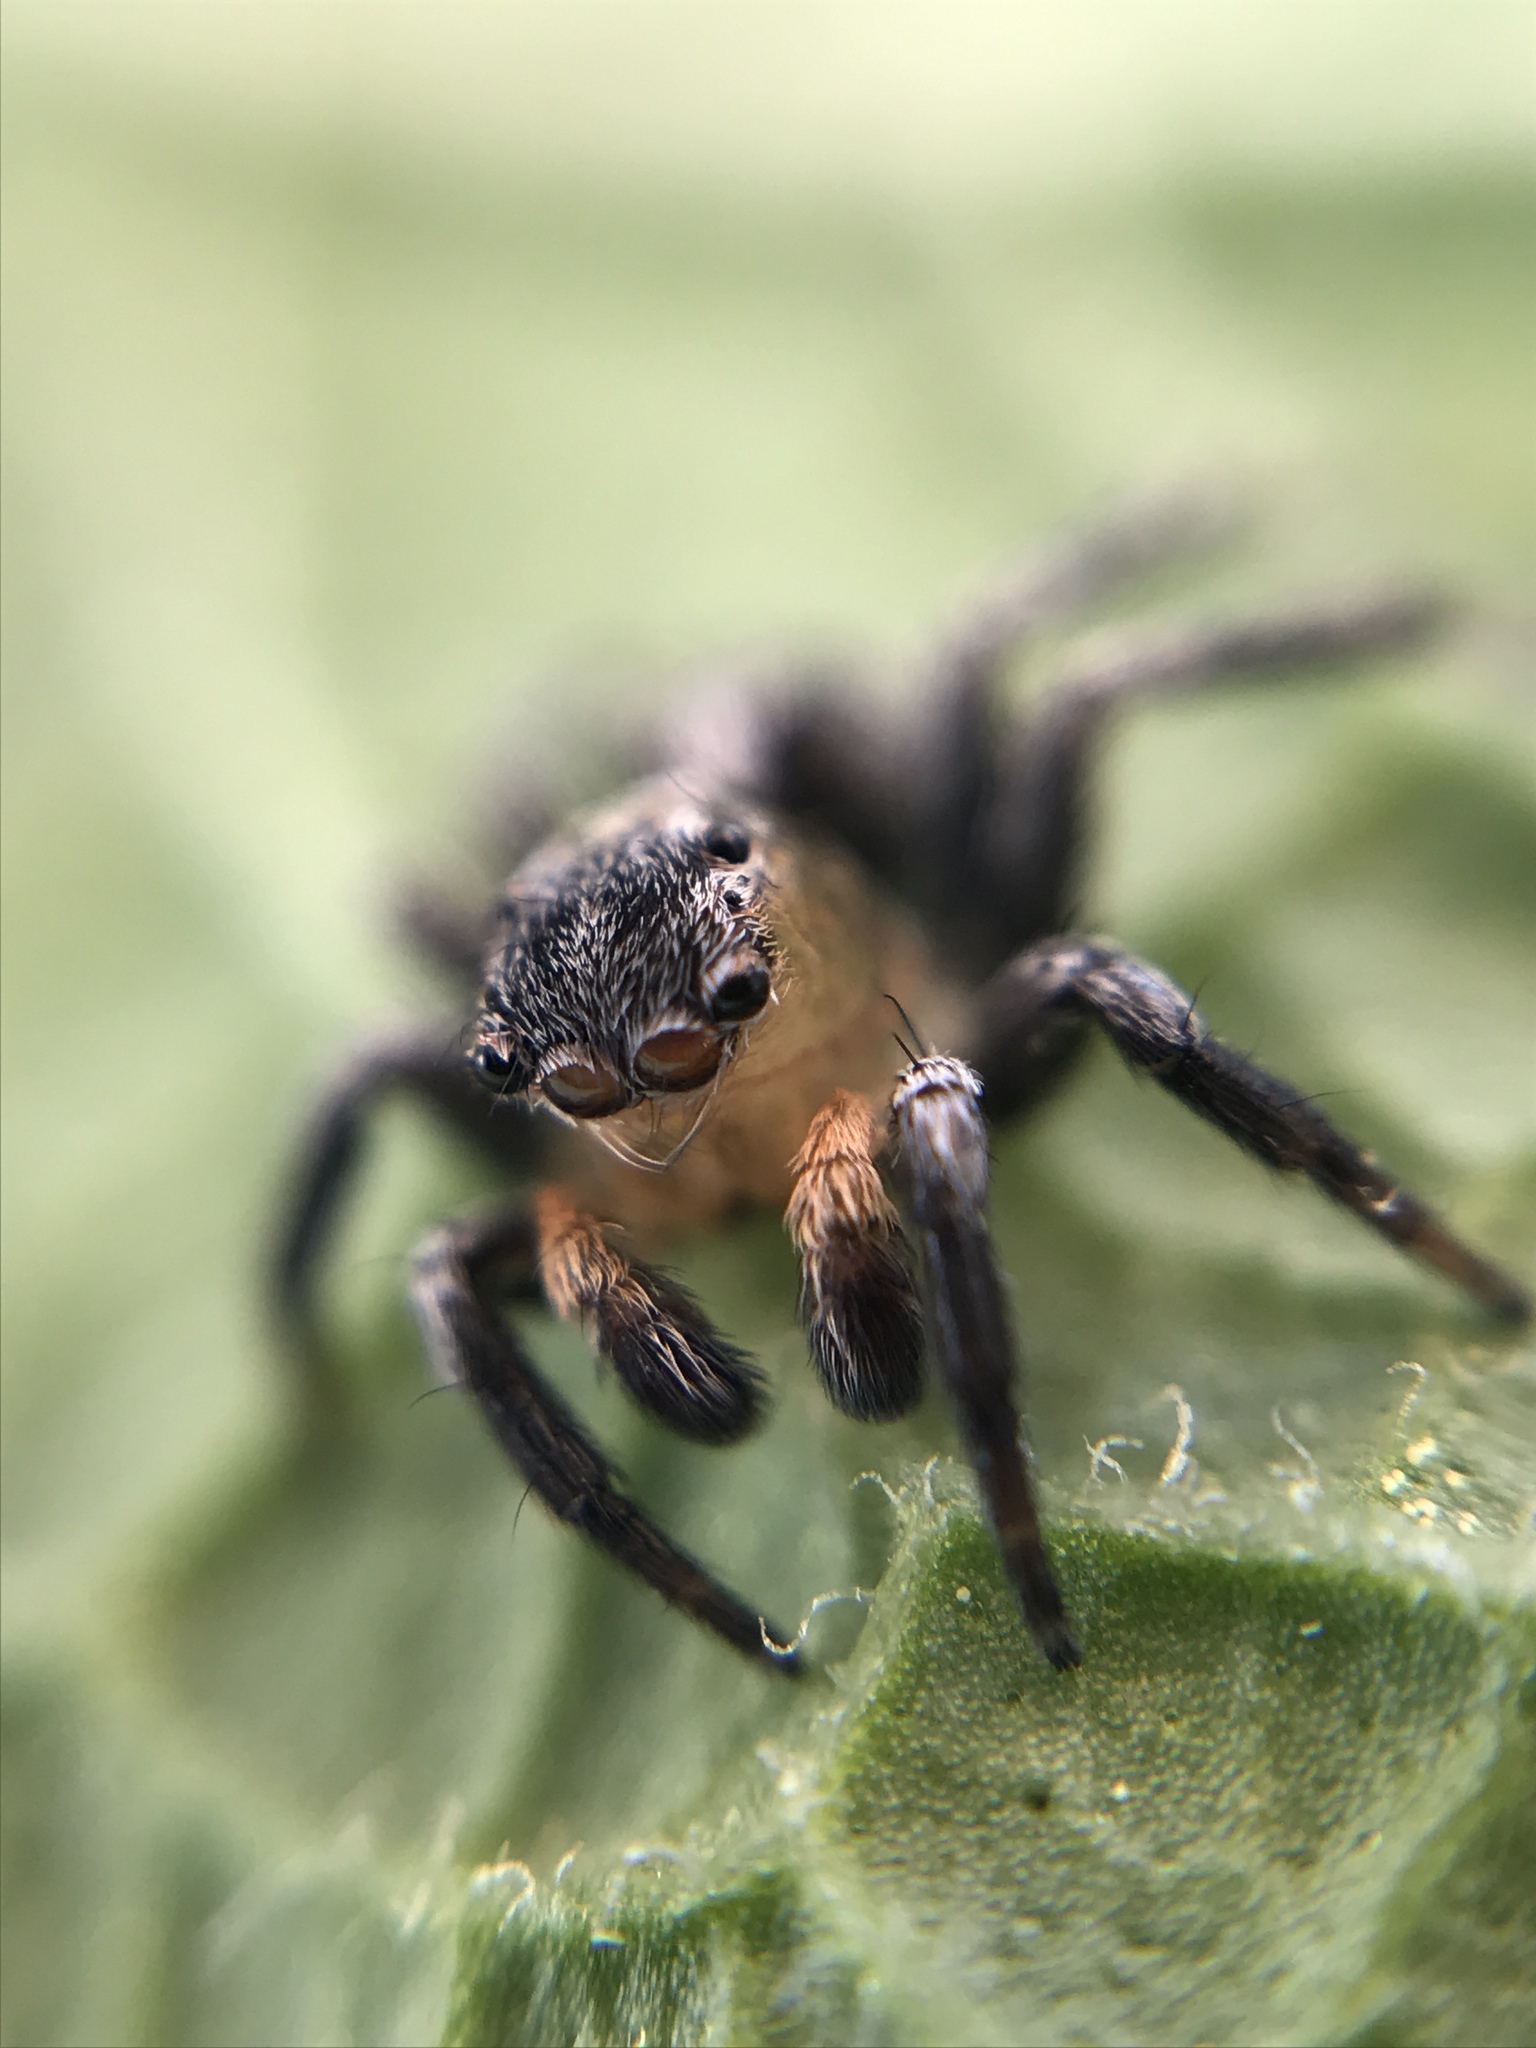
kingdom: Animalia
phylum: Arthropoda
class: Arachnida
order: Araneae
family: Salticidae
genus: Naphrys
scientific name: Naphrys pulex
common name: Flea jumping spider
